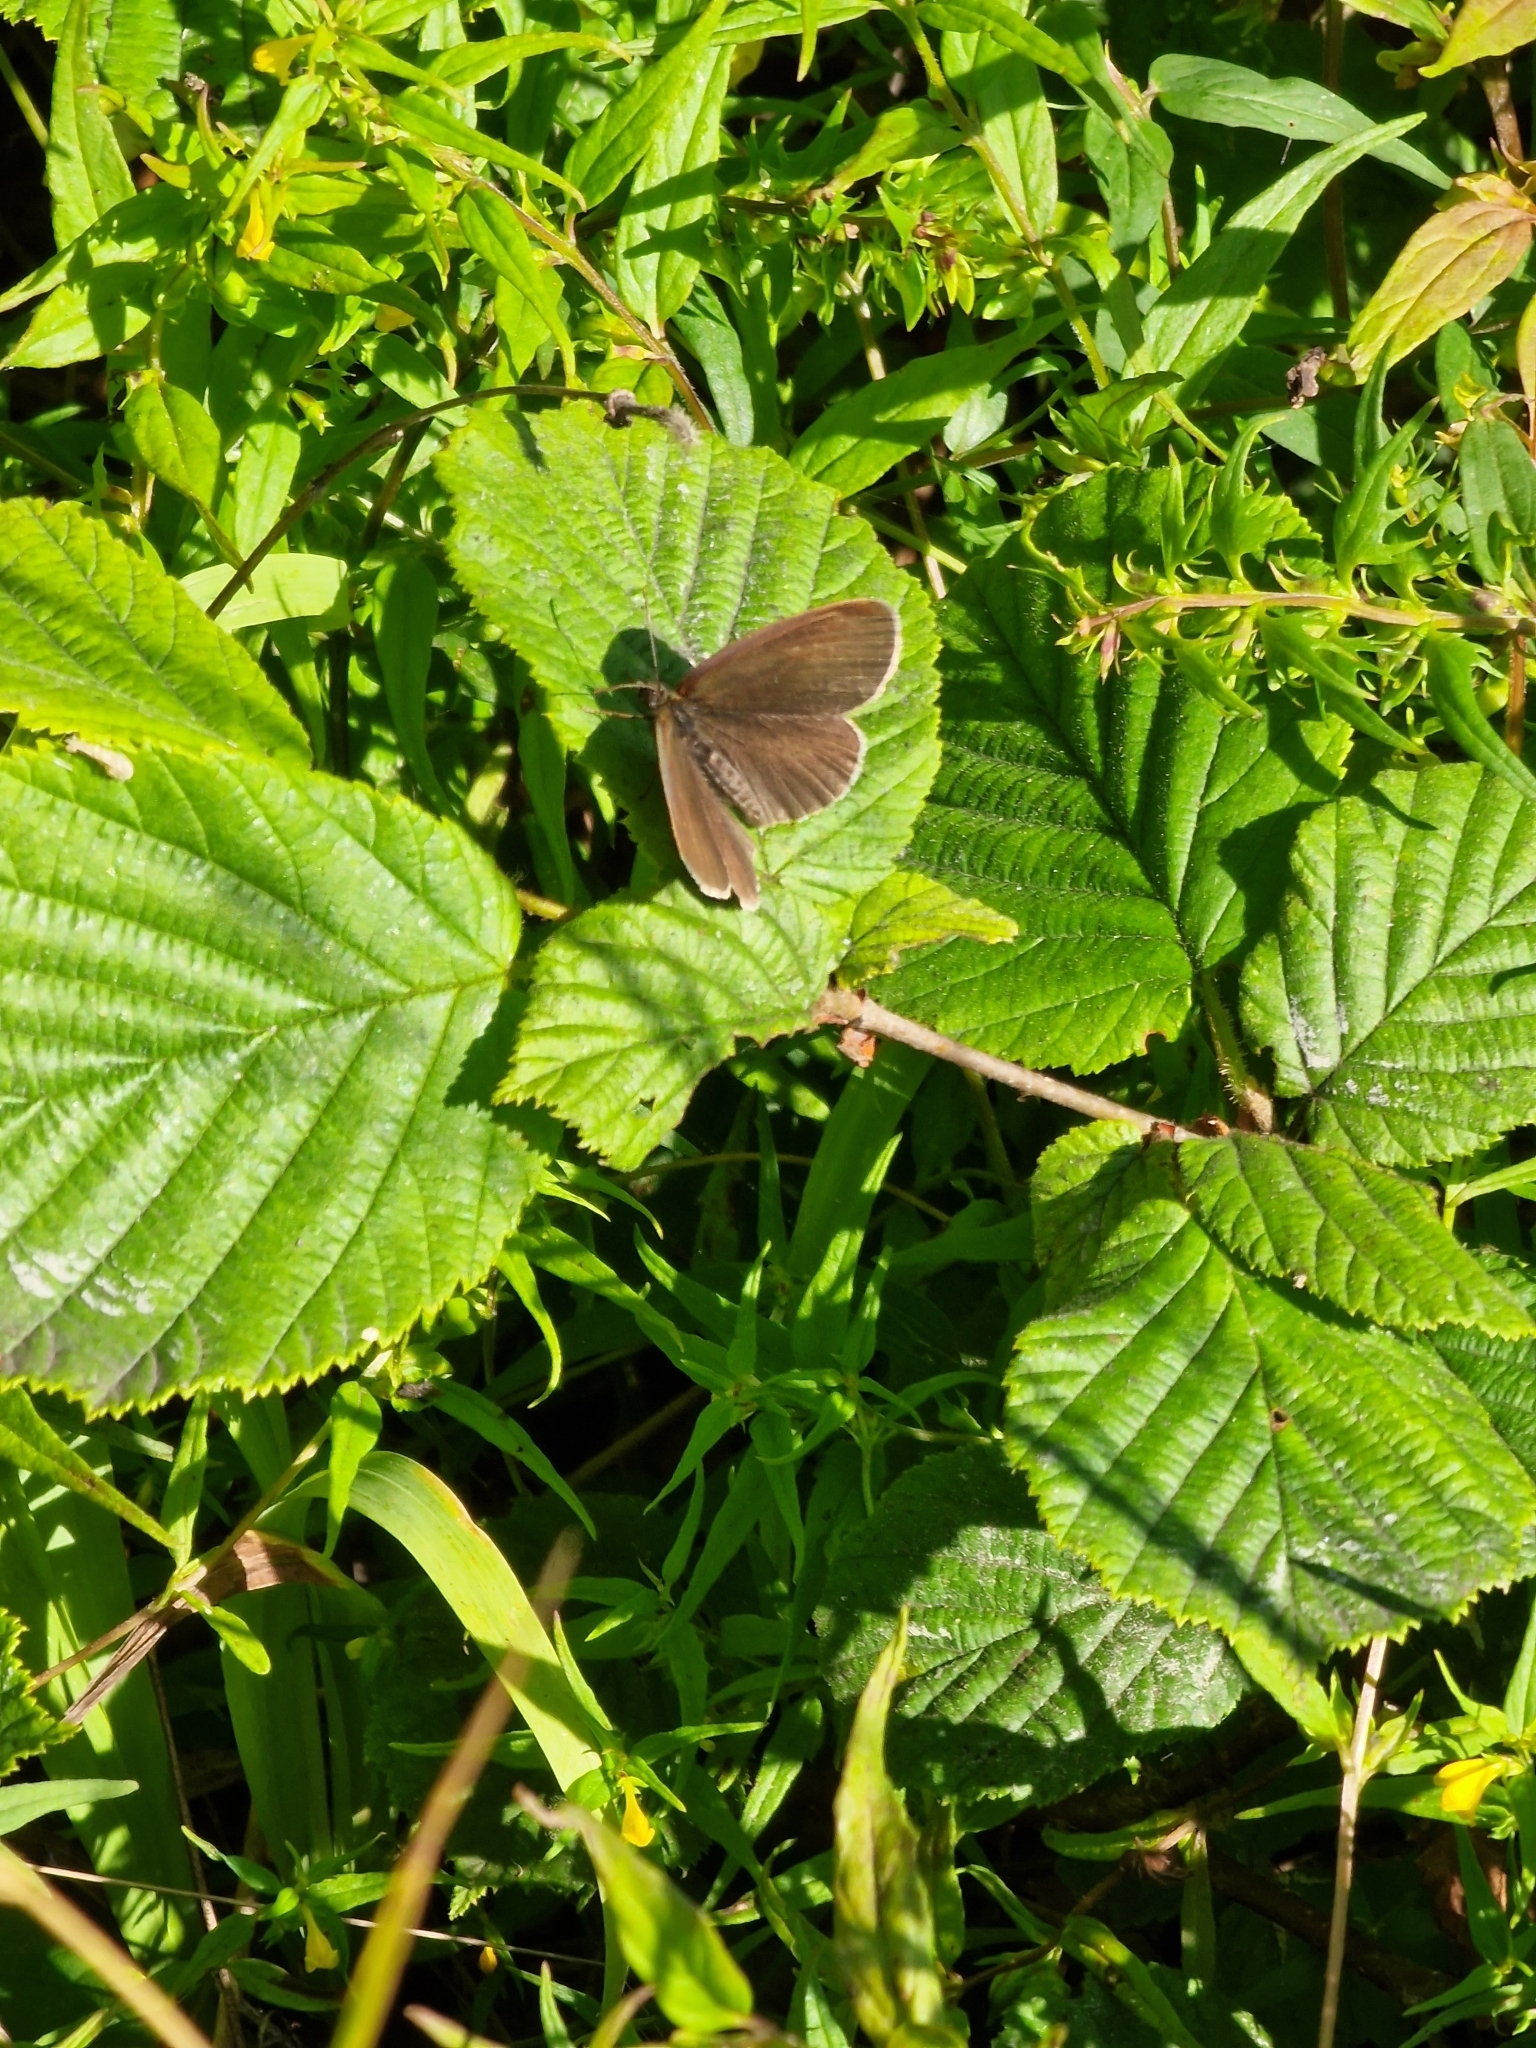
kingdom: Animalia
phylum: Arthropoda
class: Insecta
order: Lepidoptera
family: Nymphalidae
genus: Aphantopus
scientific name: Aphantopus hyperantus
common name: Ringlet
